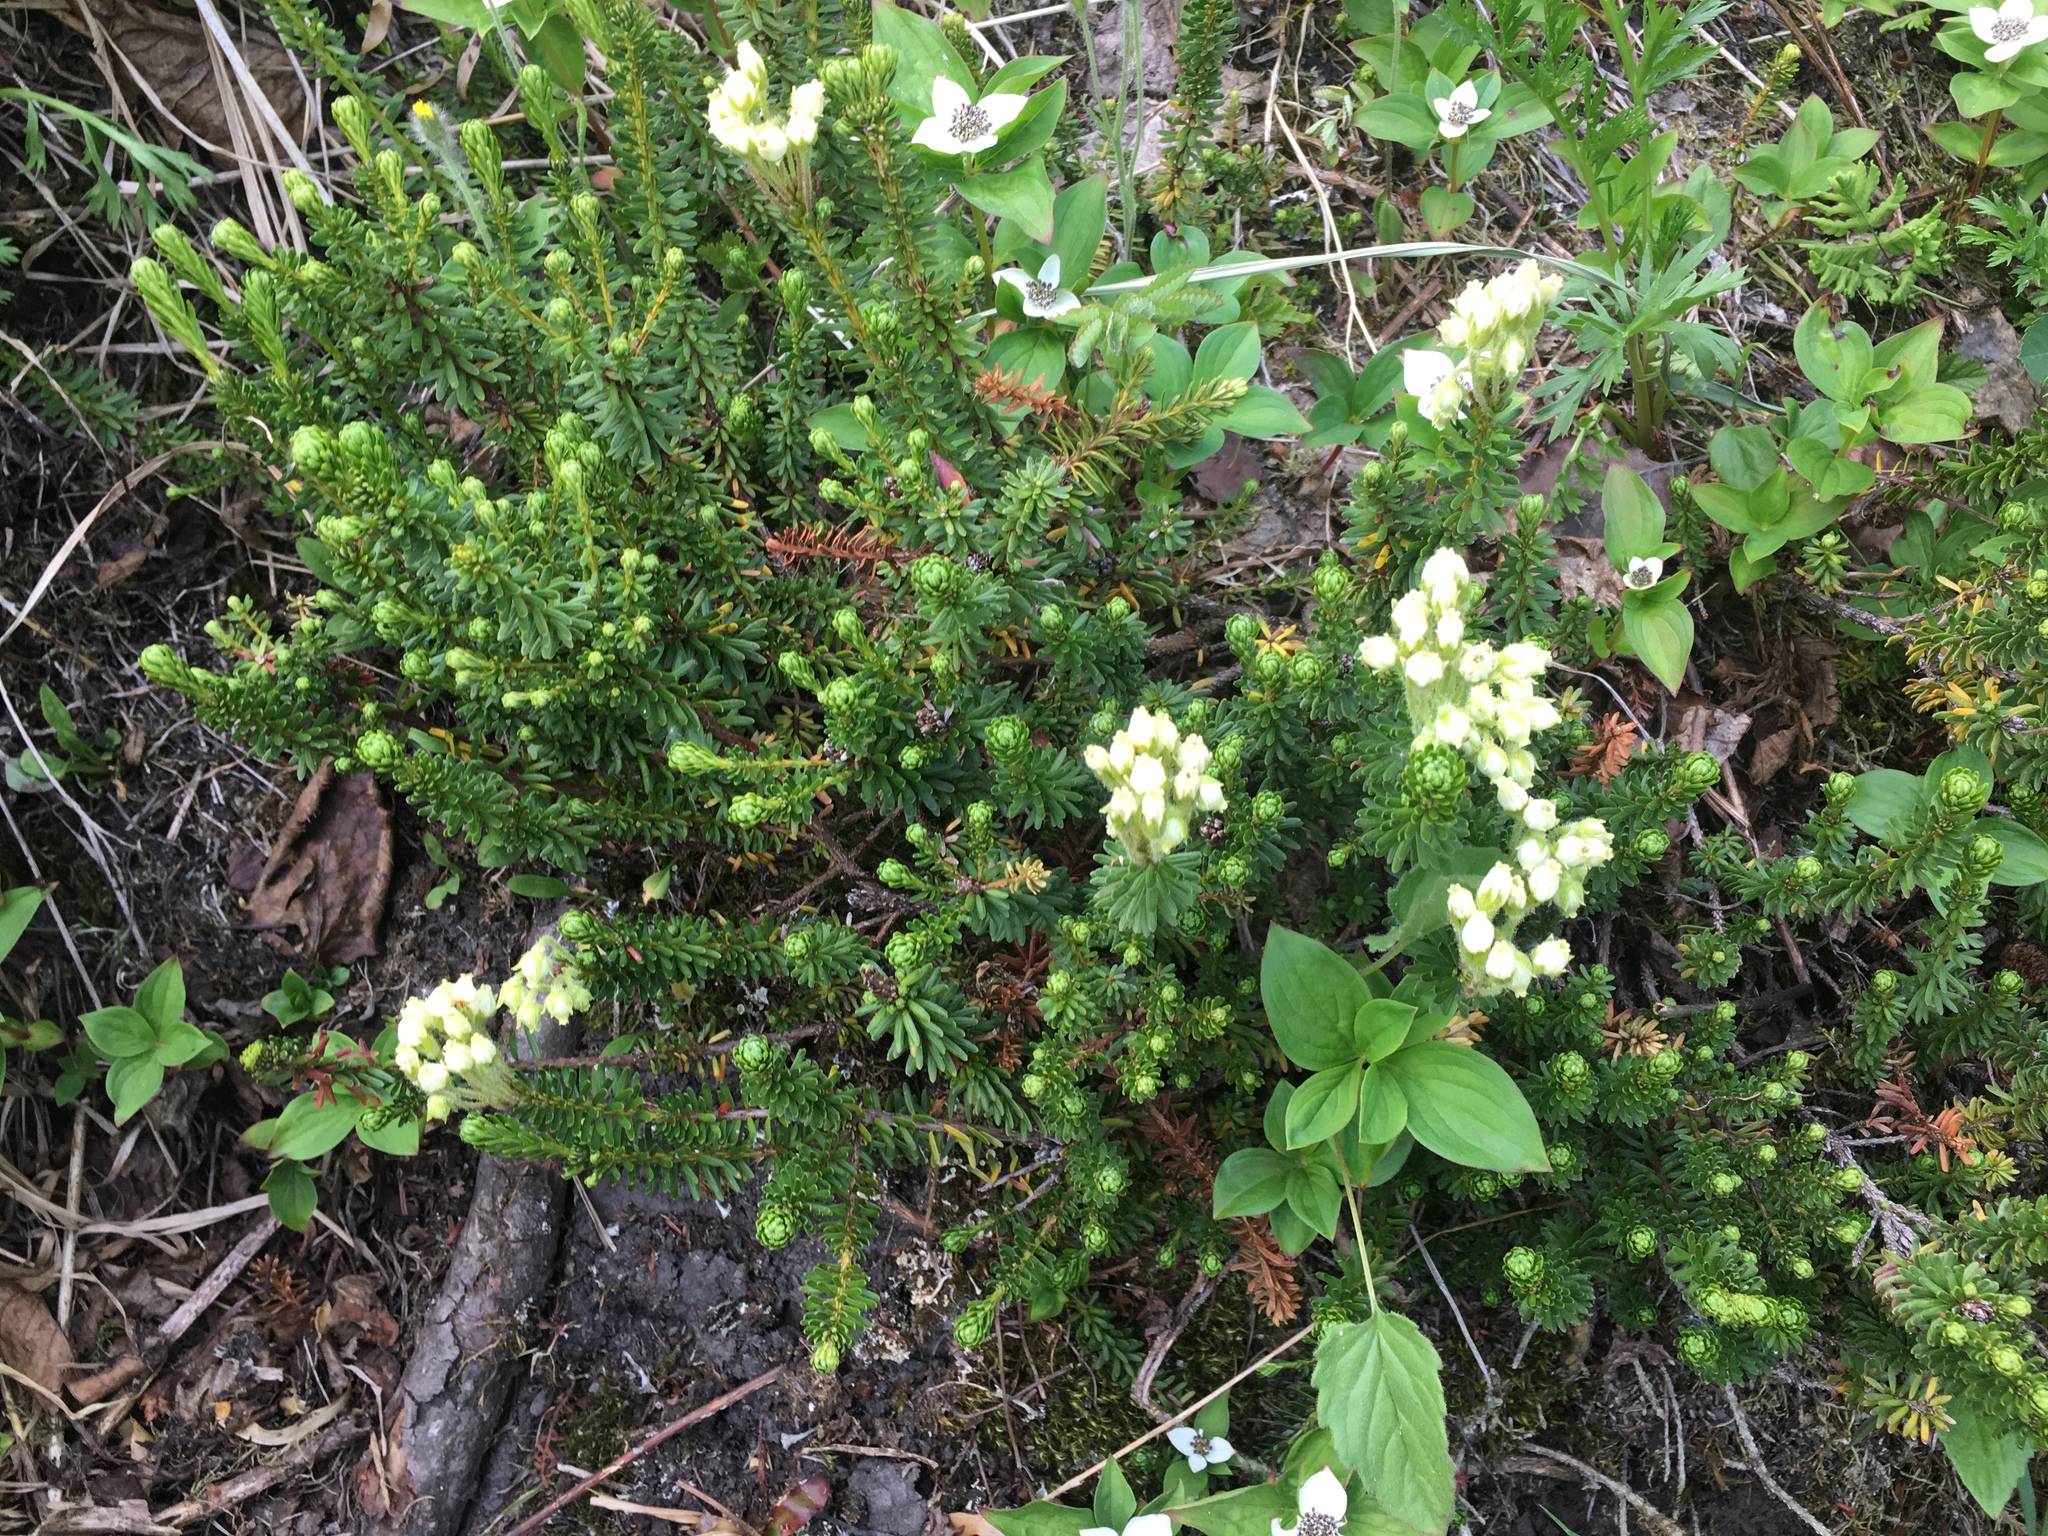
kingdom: Plantae
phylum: Tracheophyta
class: Magnoliopsida
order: Ericales
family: Ericaceae
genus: Phyllodoce
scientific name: Phyllodoce glanduliflora
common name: Cream mountain heather
